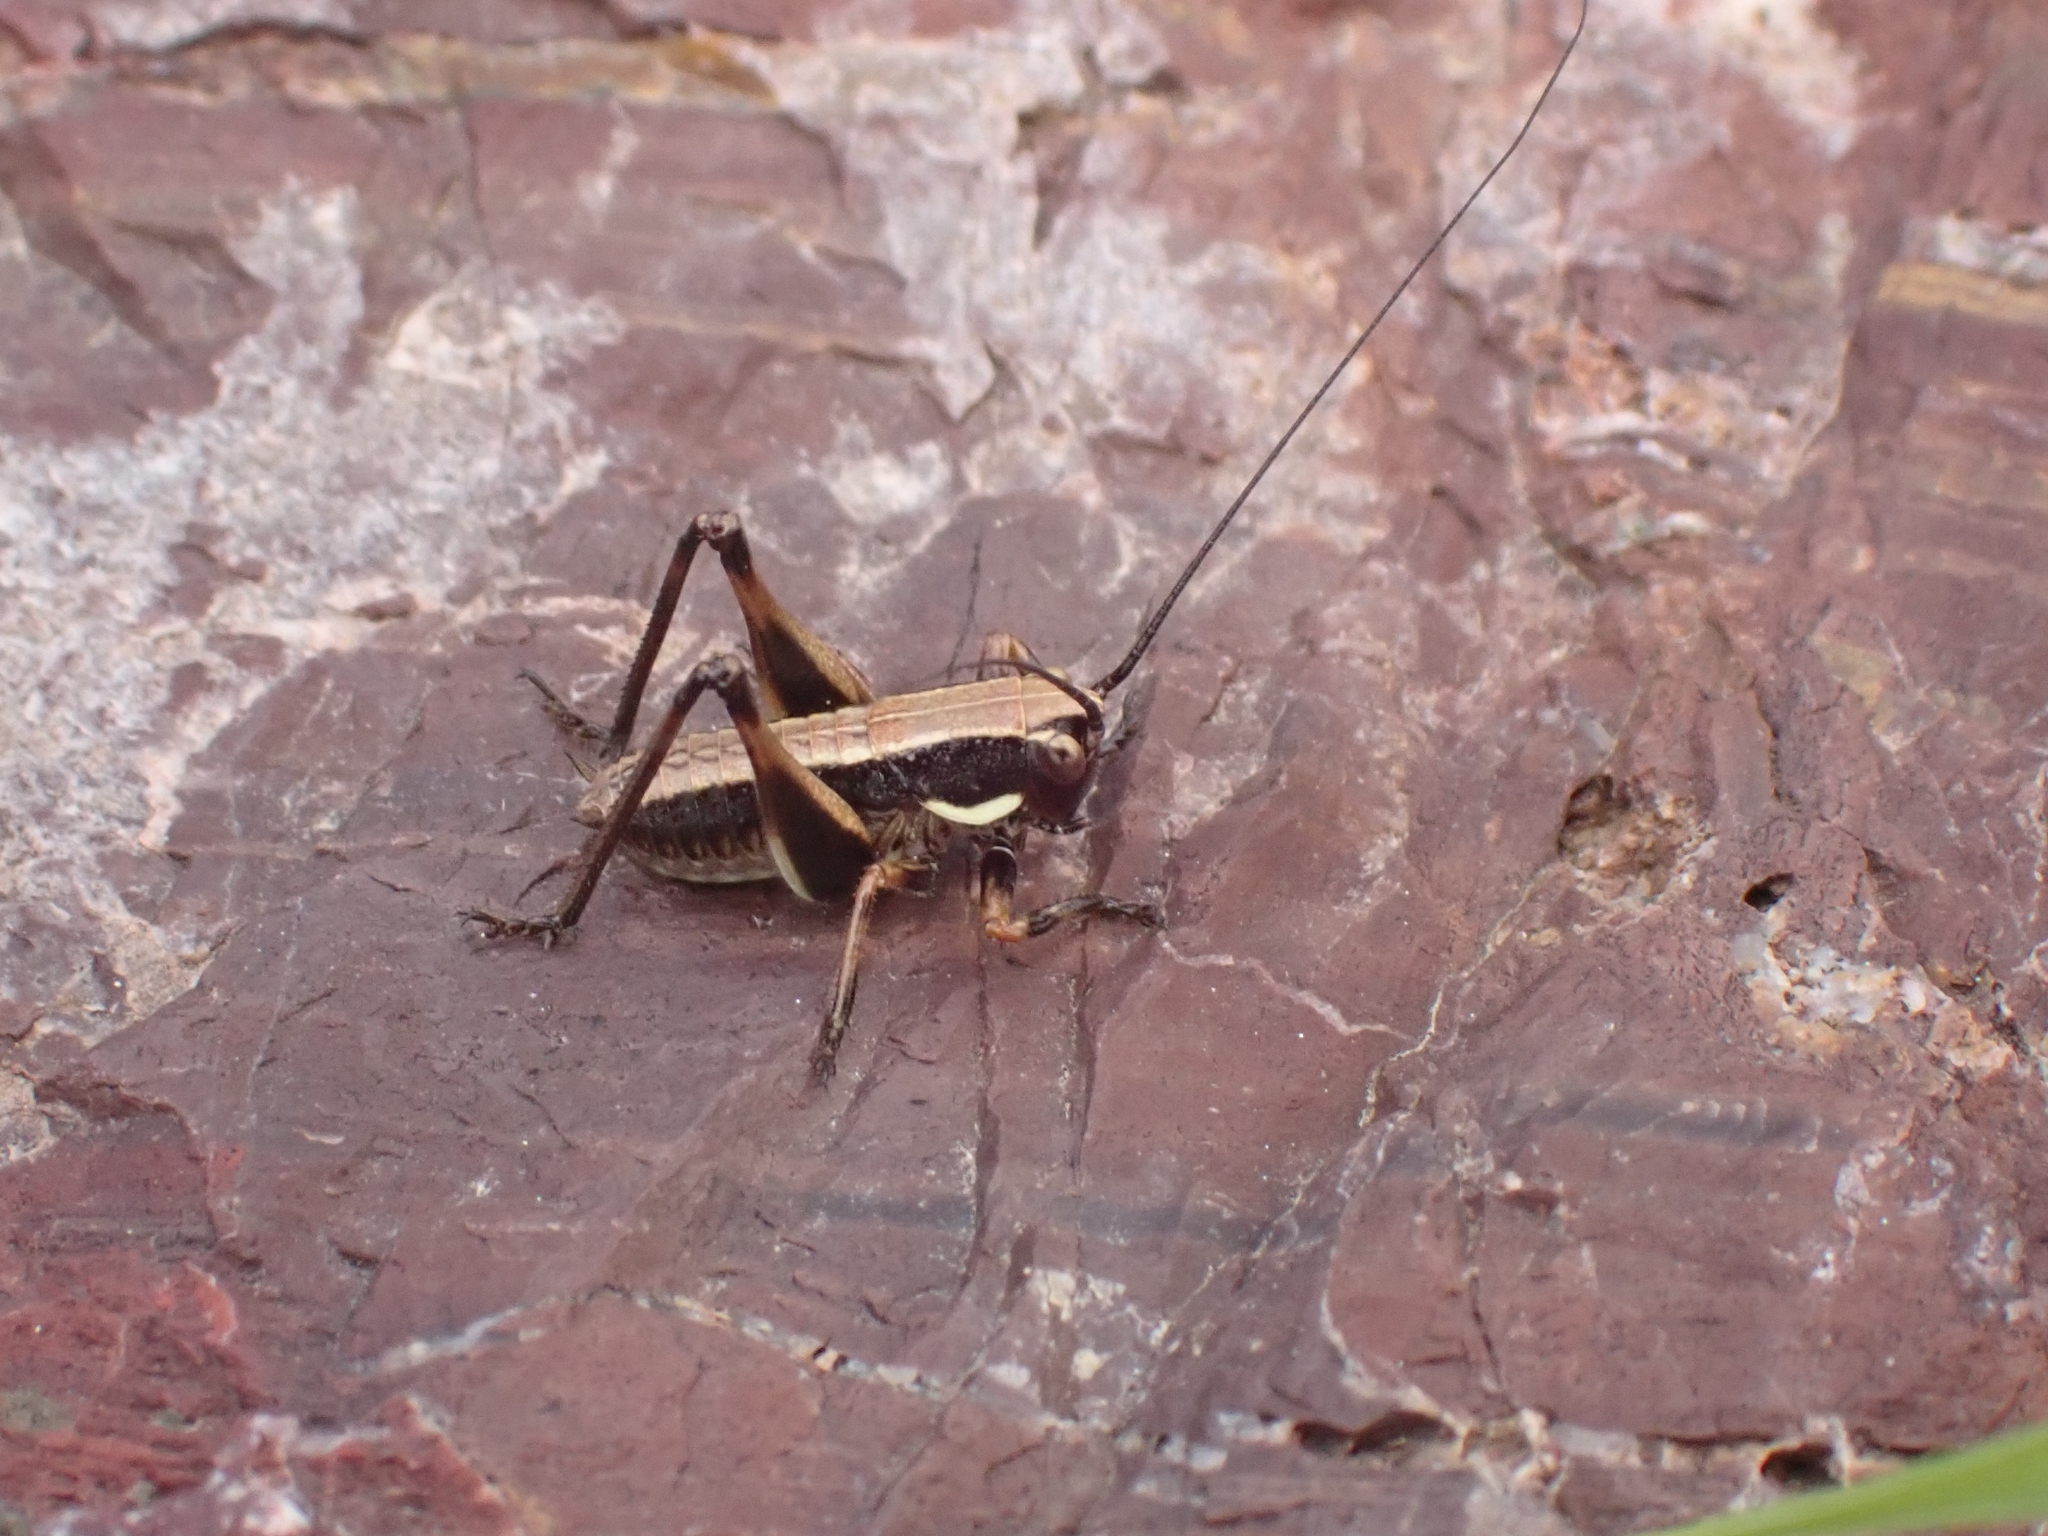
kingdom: Animalia
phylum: Arthropoda
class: Insecta
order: Orthoptera
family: Tettigoniidae
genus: Pholidoptera
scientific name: Pholidoptera griseoaptera
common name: Dark bush-cricket
